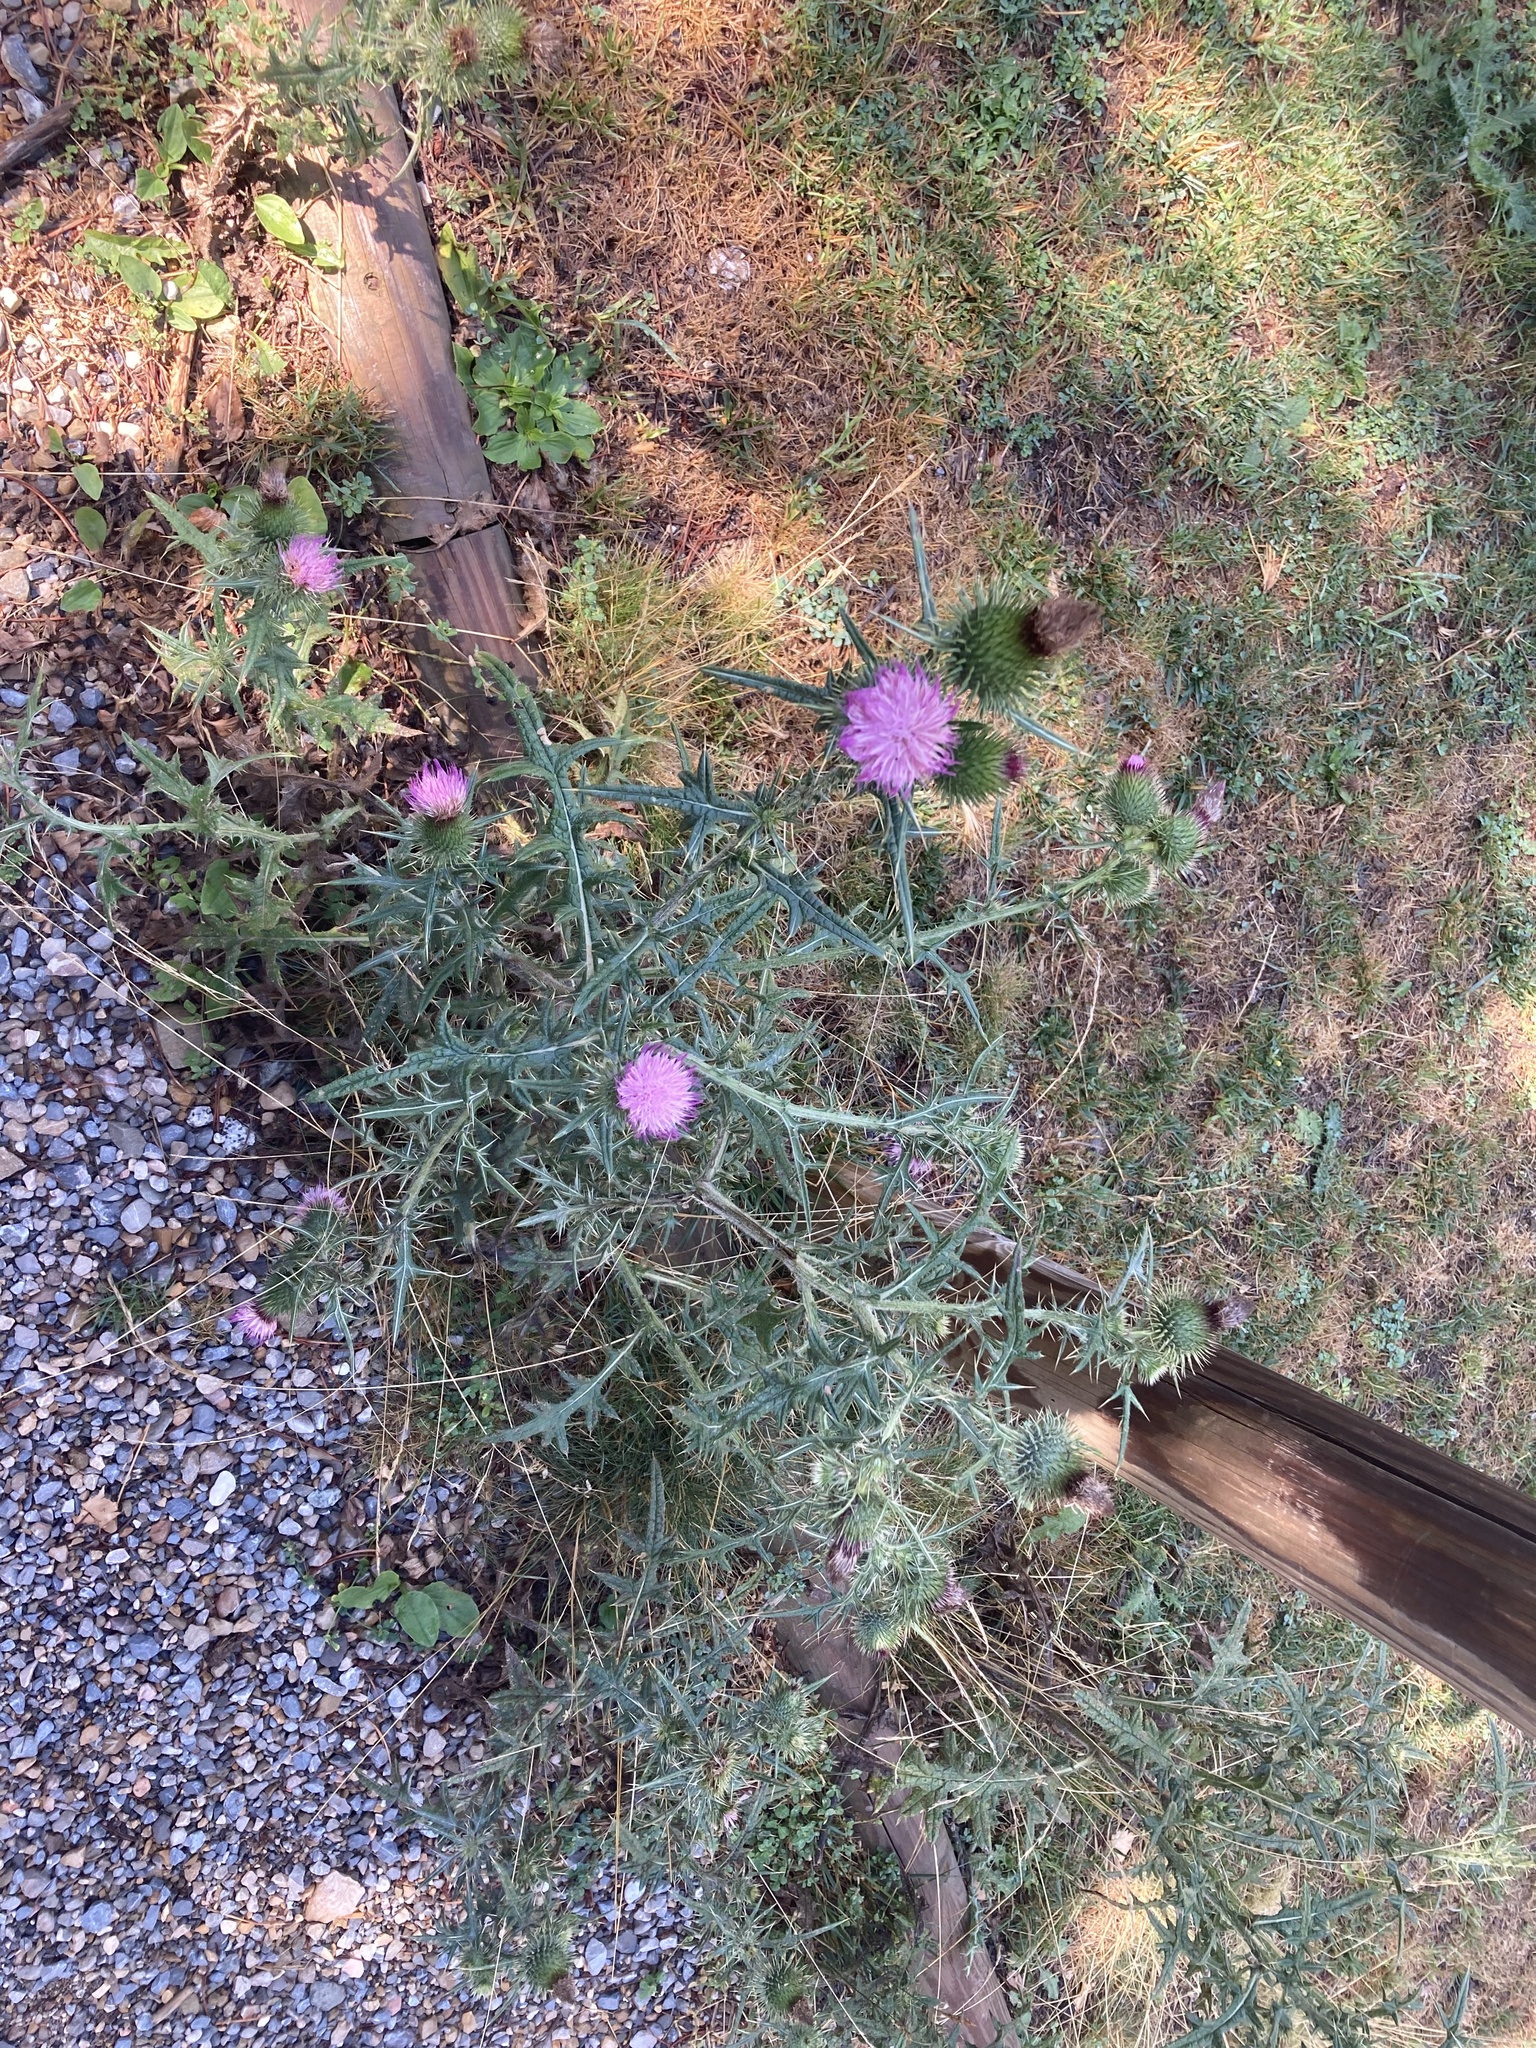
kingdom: Plantae
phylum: Tracheophyta
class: Magnoliopsida
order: Asterales
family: Asteraceae
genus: Cirsium
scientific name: Cirsium vulgare
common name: Bull thistle
